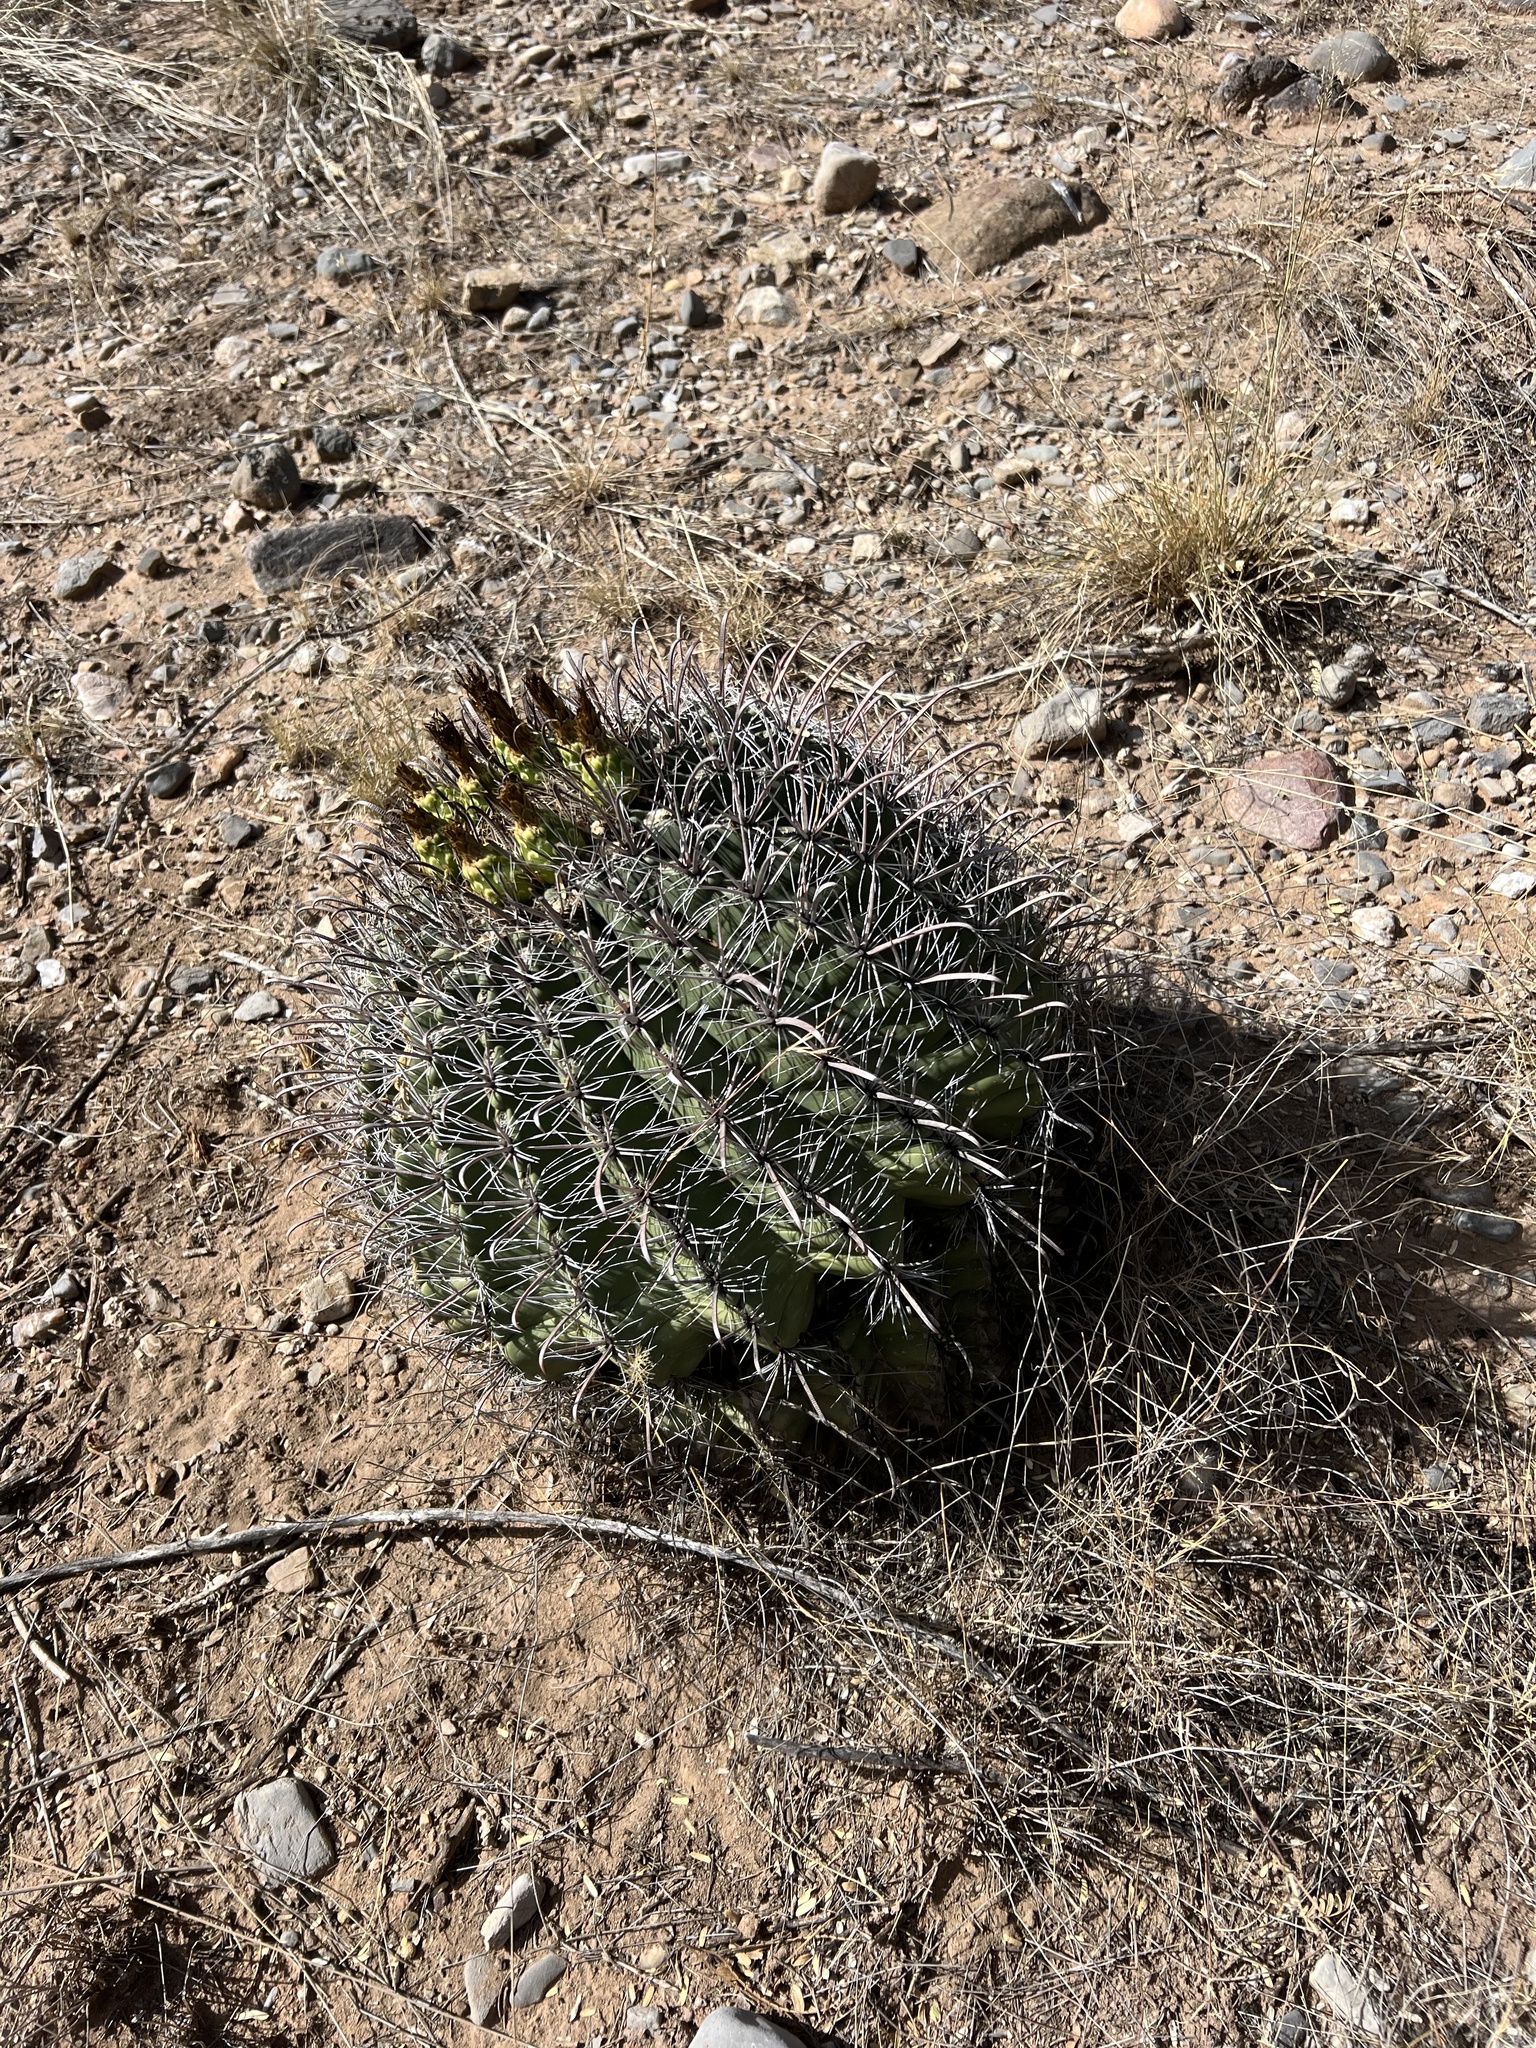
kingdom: Plantae
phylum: Tracheophyta
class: Magnoliopsida
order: Caryophyllales
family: Cactaceae
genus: Ferocactus
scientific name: Ferocactus wislizeni
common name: Candy barrel cactus
